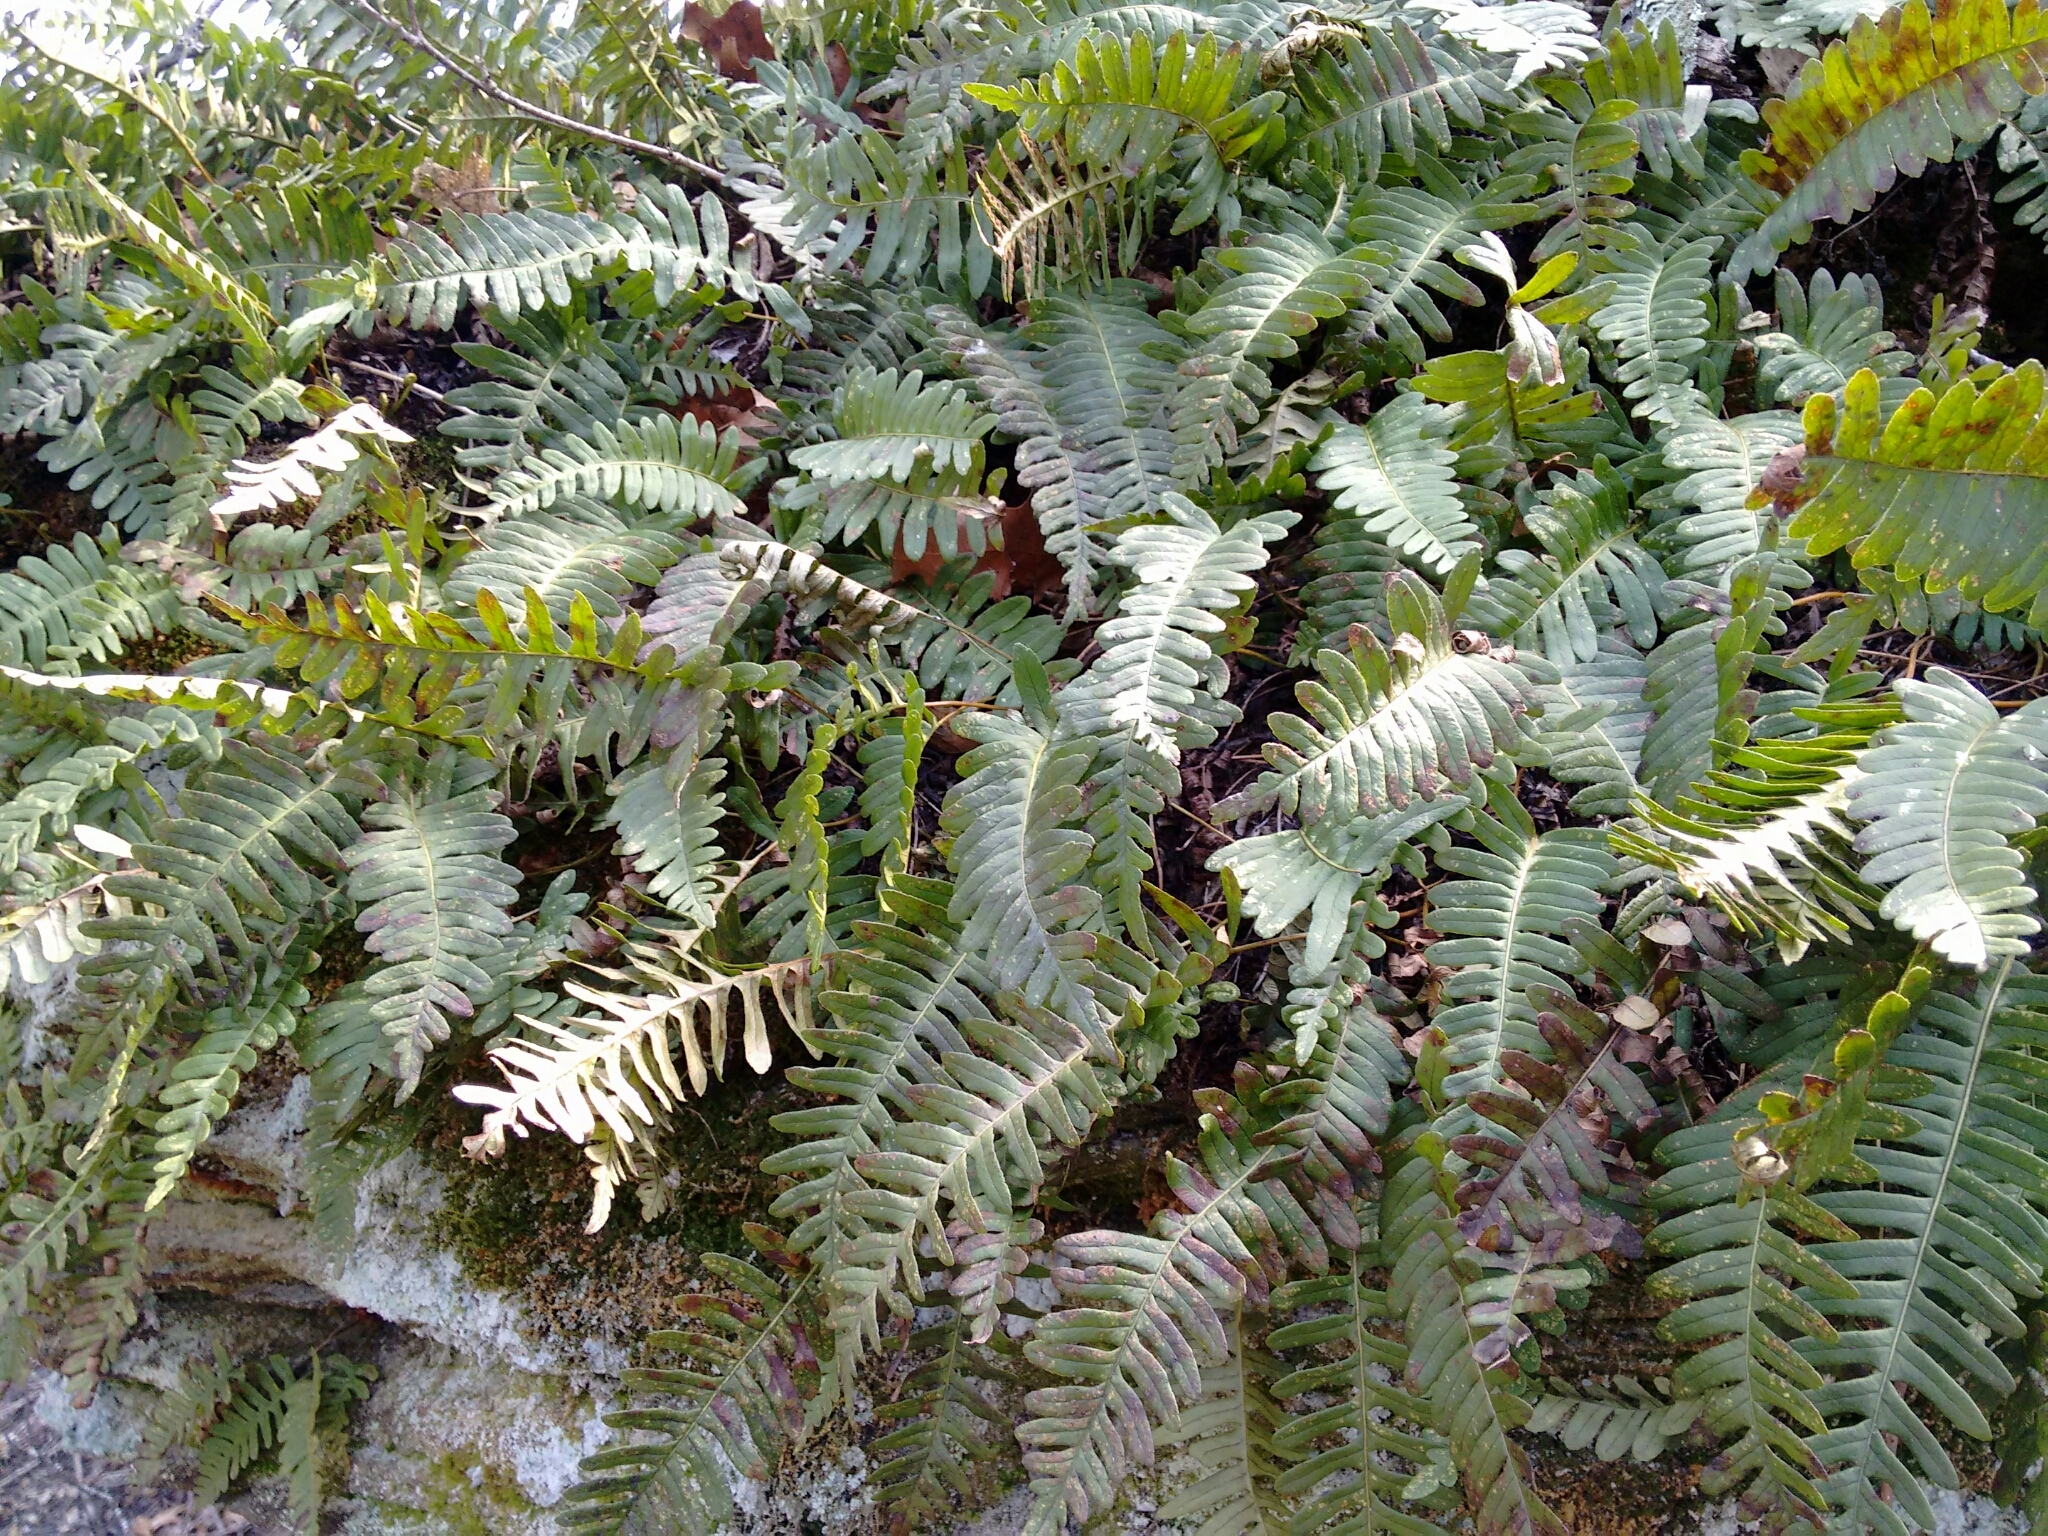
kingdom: Plantae
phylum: Tracheophyta
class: Polypodiopsida
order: Polypodiales
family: Polypodiaceae
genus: Polypodium
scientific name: Polypodium virginianum
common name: American wall fern
